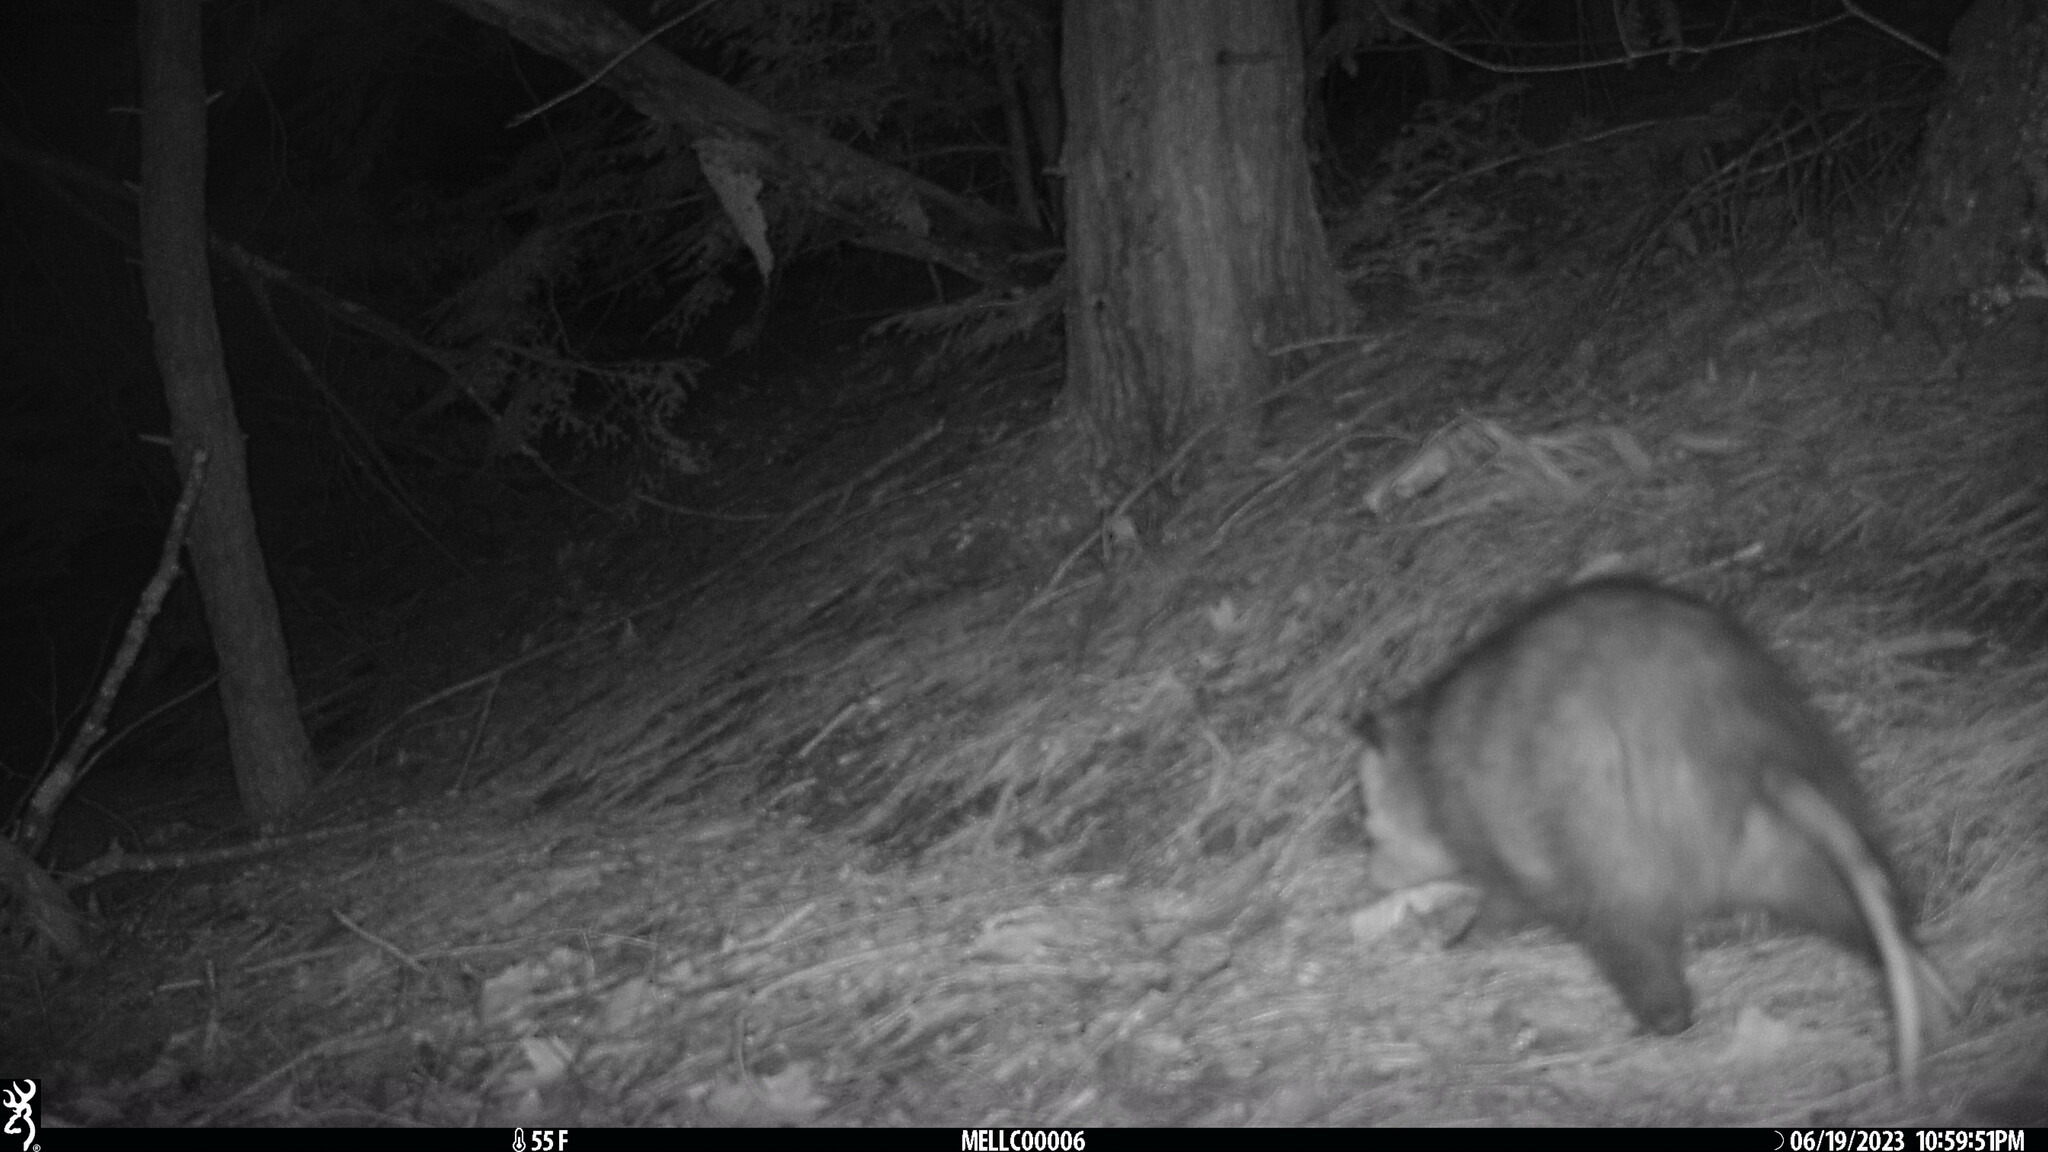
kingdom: Animalia
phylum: Chordata
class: Mammalia
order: Didelphimorphia
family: Didelphidae
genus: Didelphis
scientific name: Didelphis virginiana
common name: Virginia opossum
